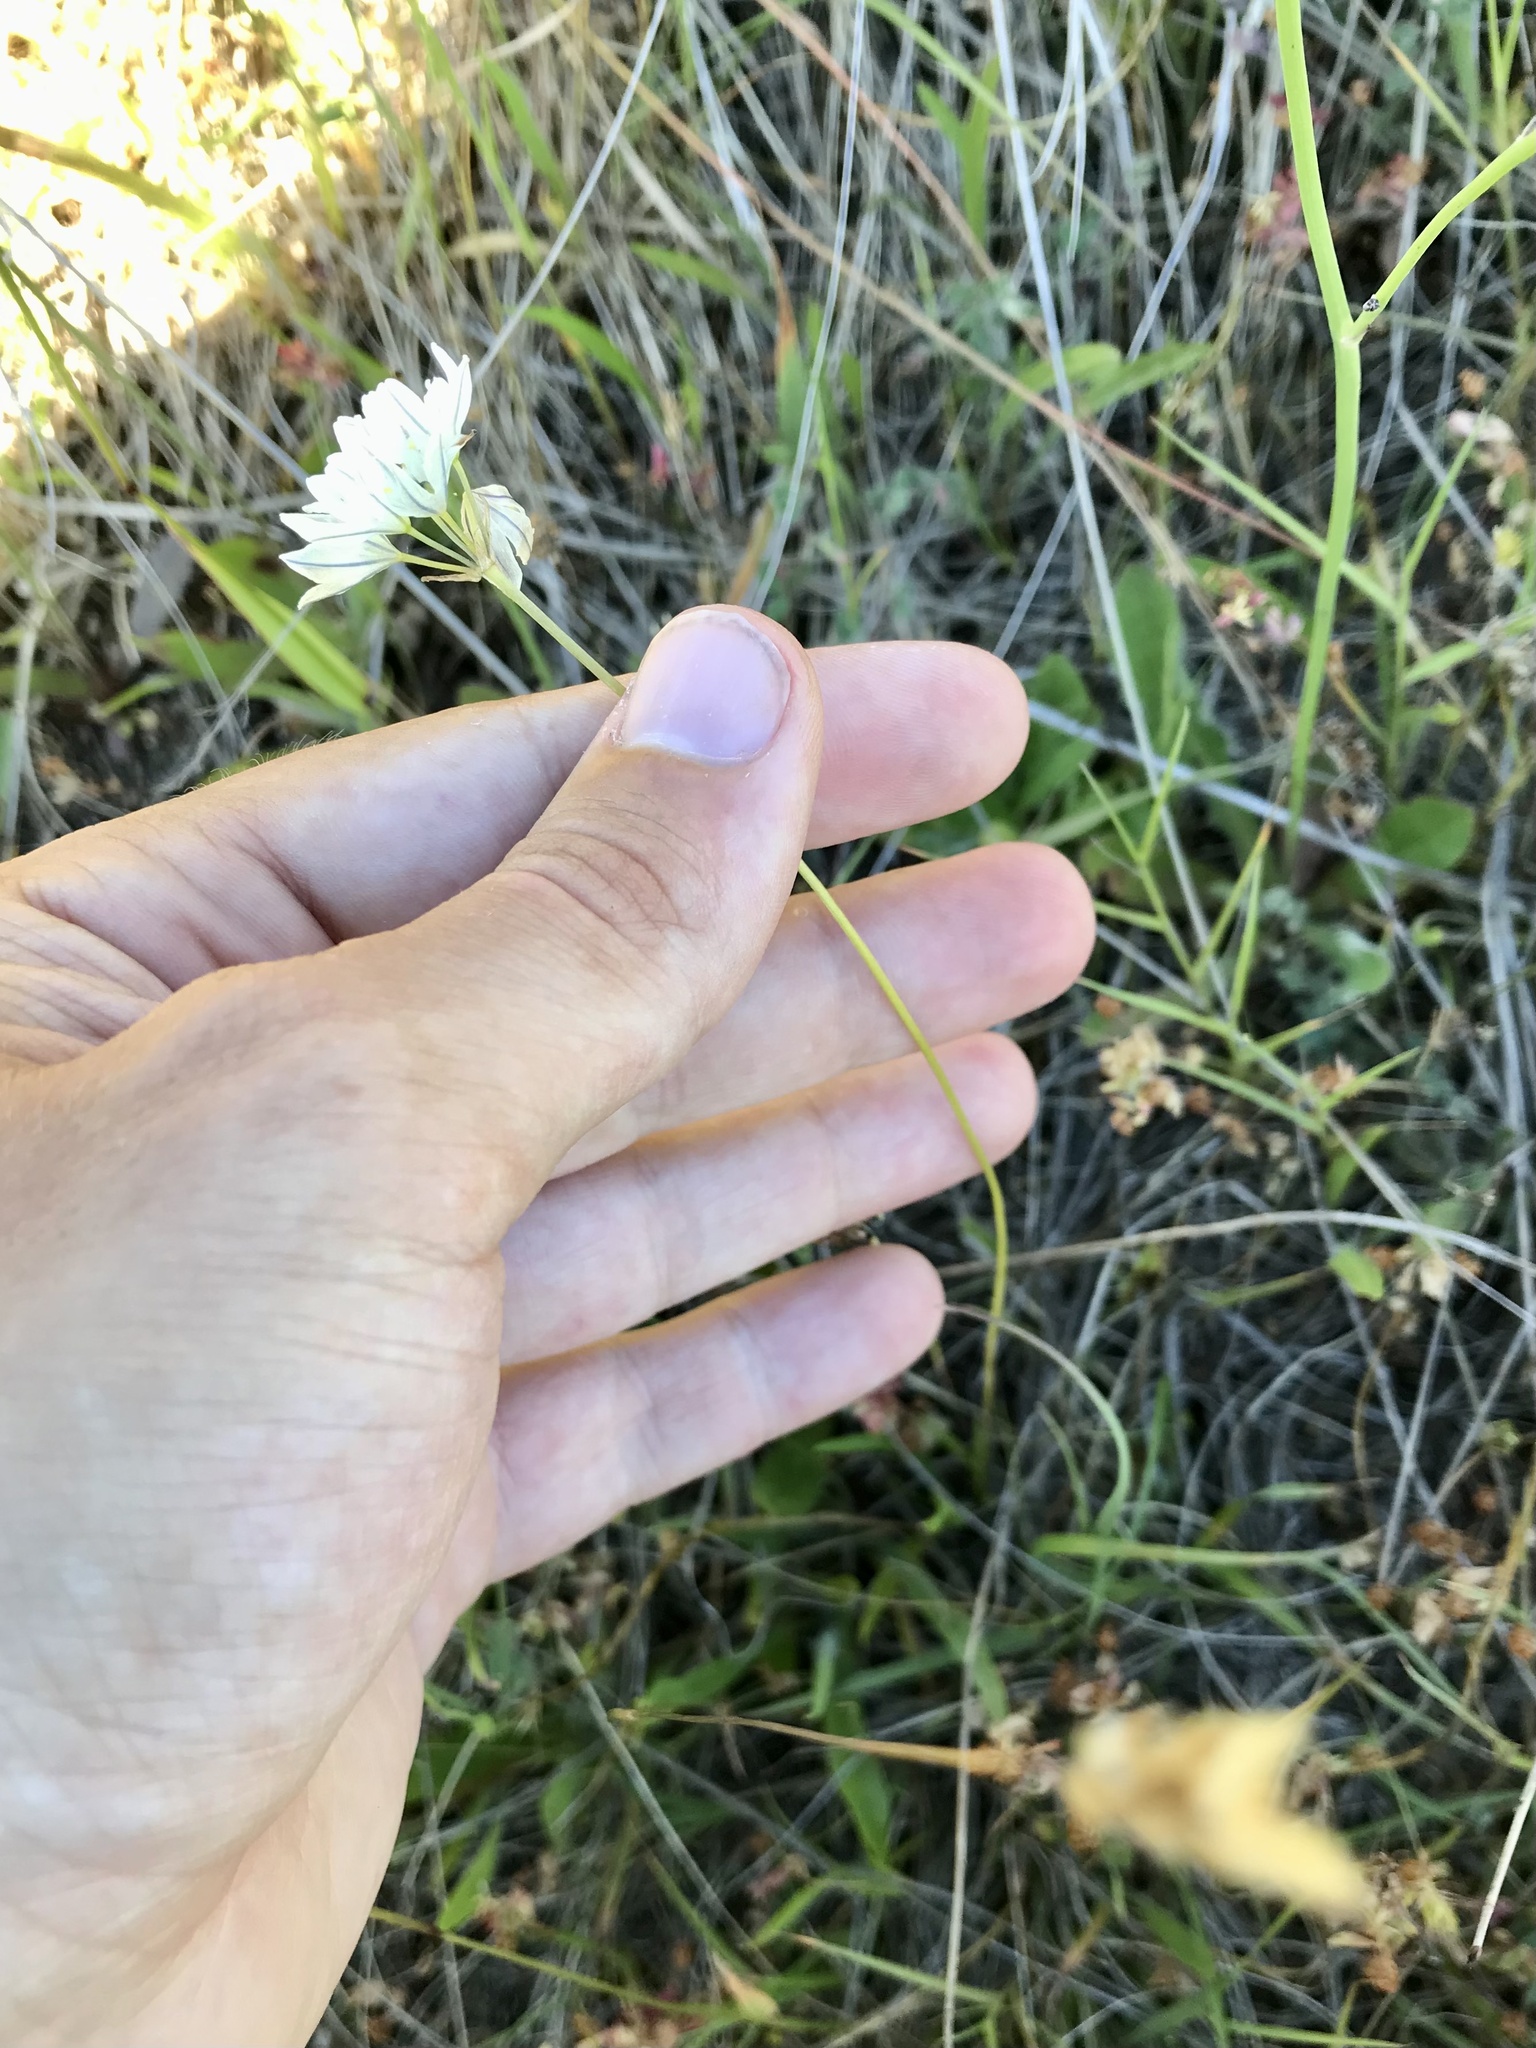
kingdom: Plantae
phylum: Tracheophyta
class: Liliopsida
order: Asparagales
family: Asparagaceae
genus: Triteleia
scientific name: Triteleia hyacinthina
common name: White brodiaea
